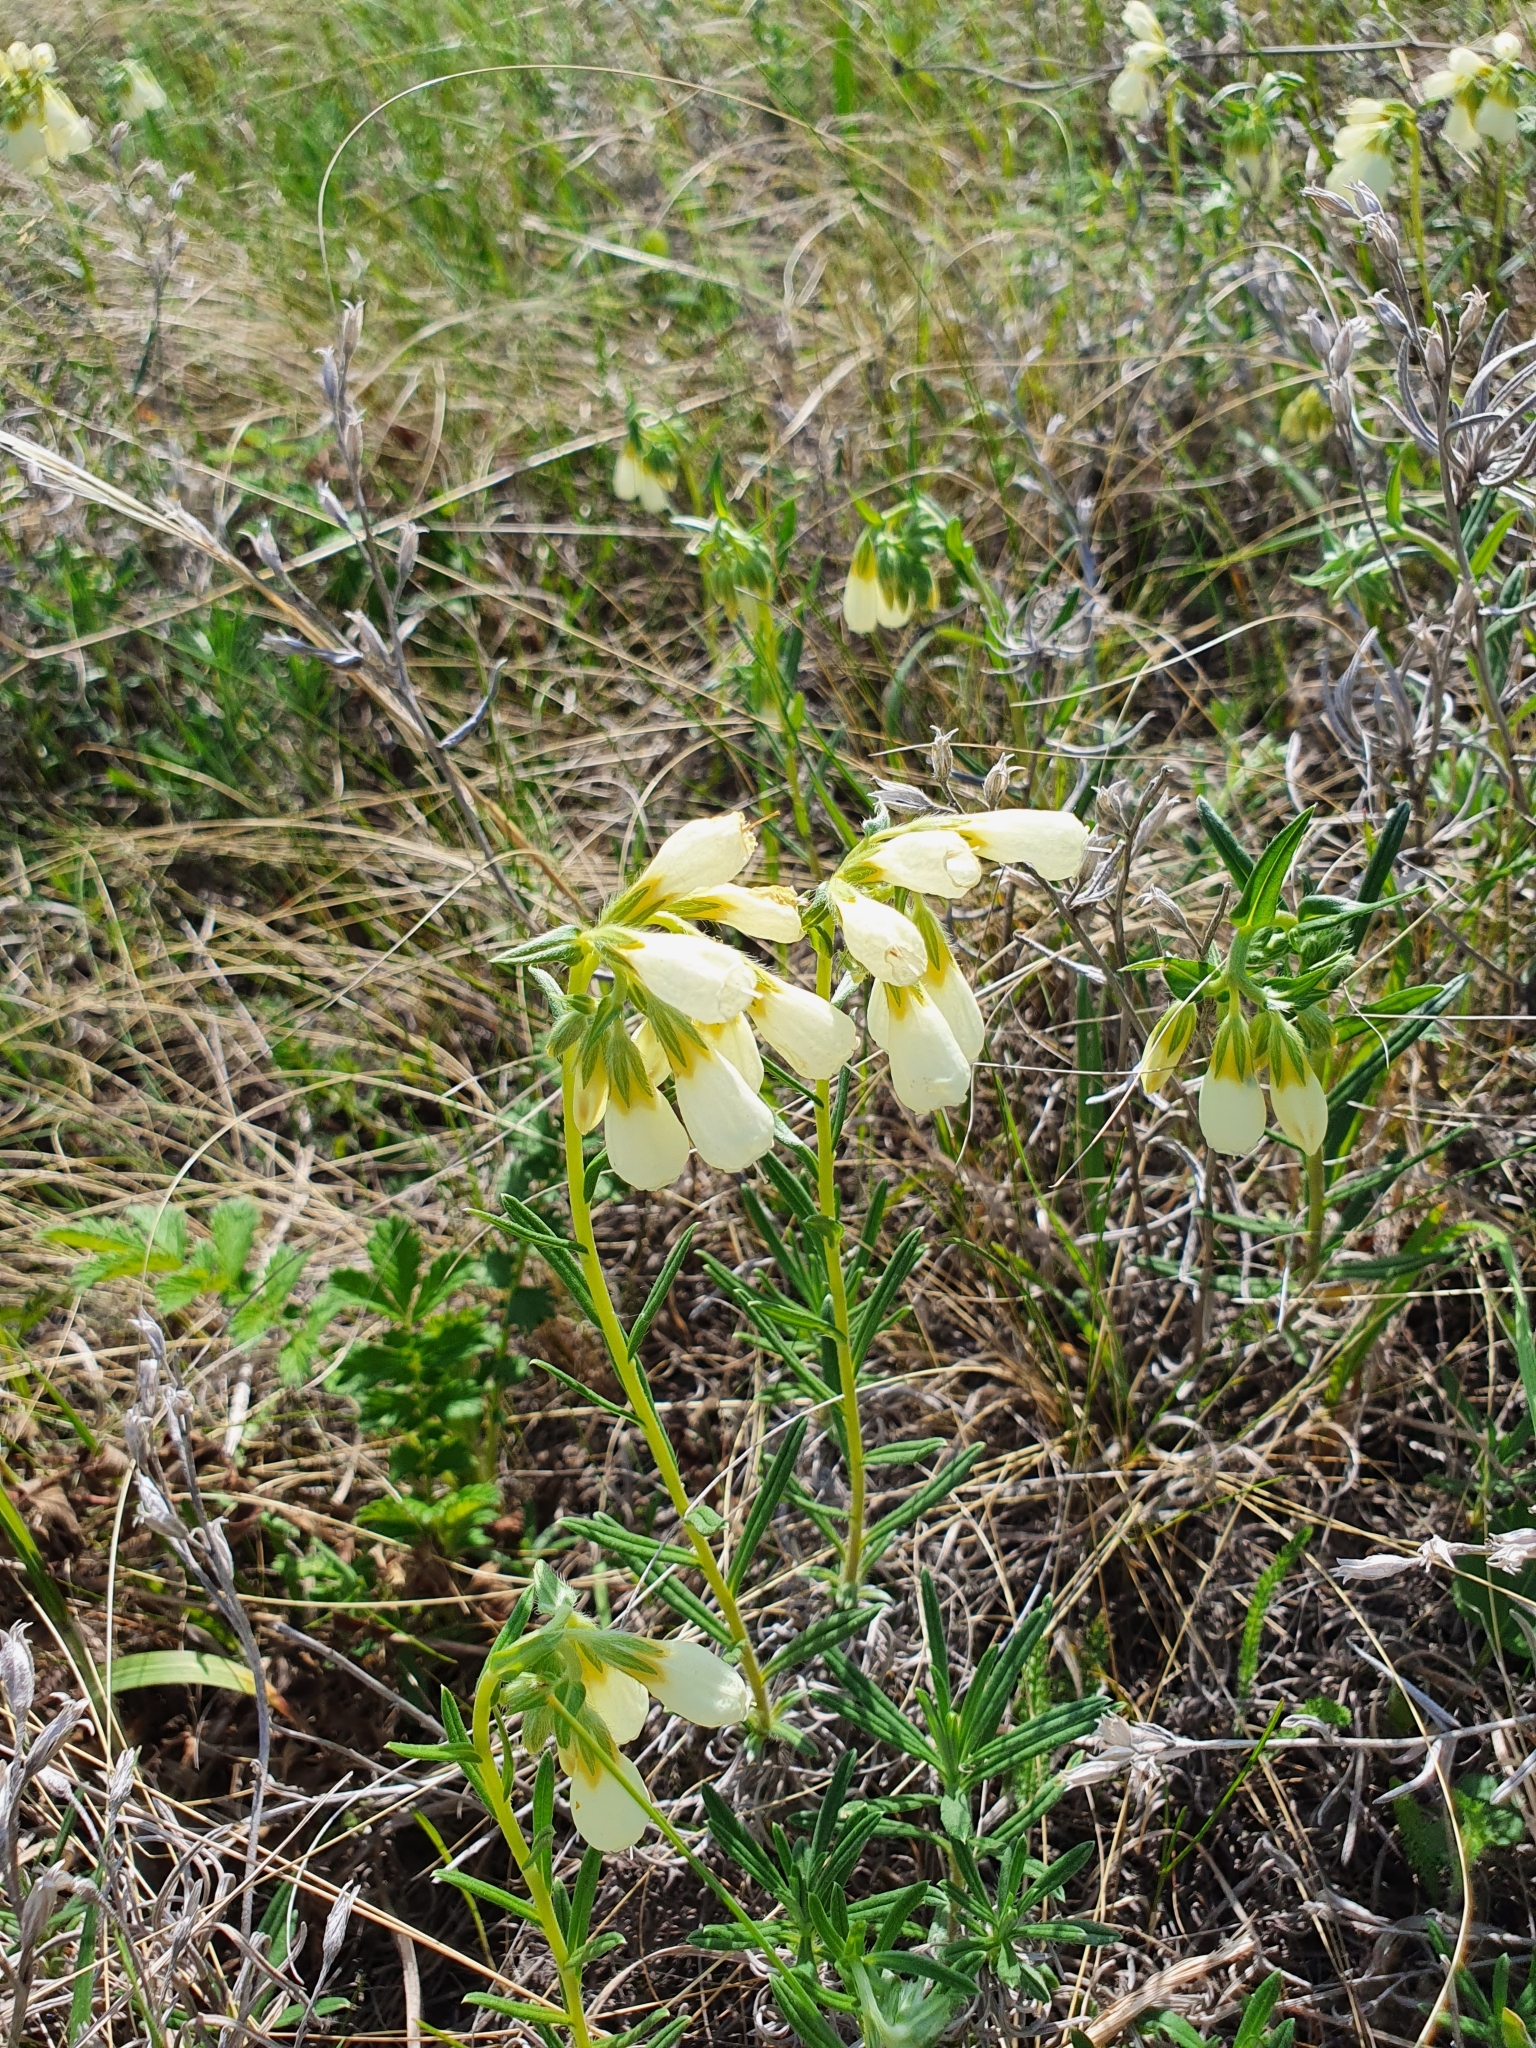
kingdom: Plantae
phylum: Tracheophyta
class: Magnoliopsida
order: Boraginales
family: Boraginaceae
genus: Onosma
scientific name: Onosma simplicissima
